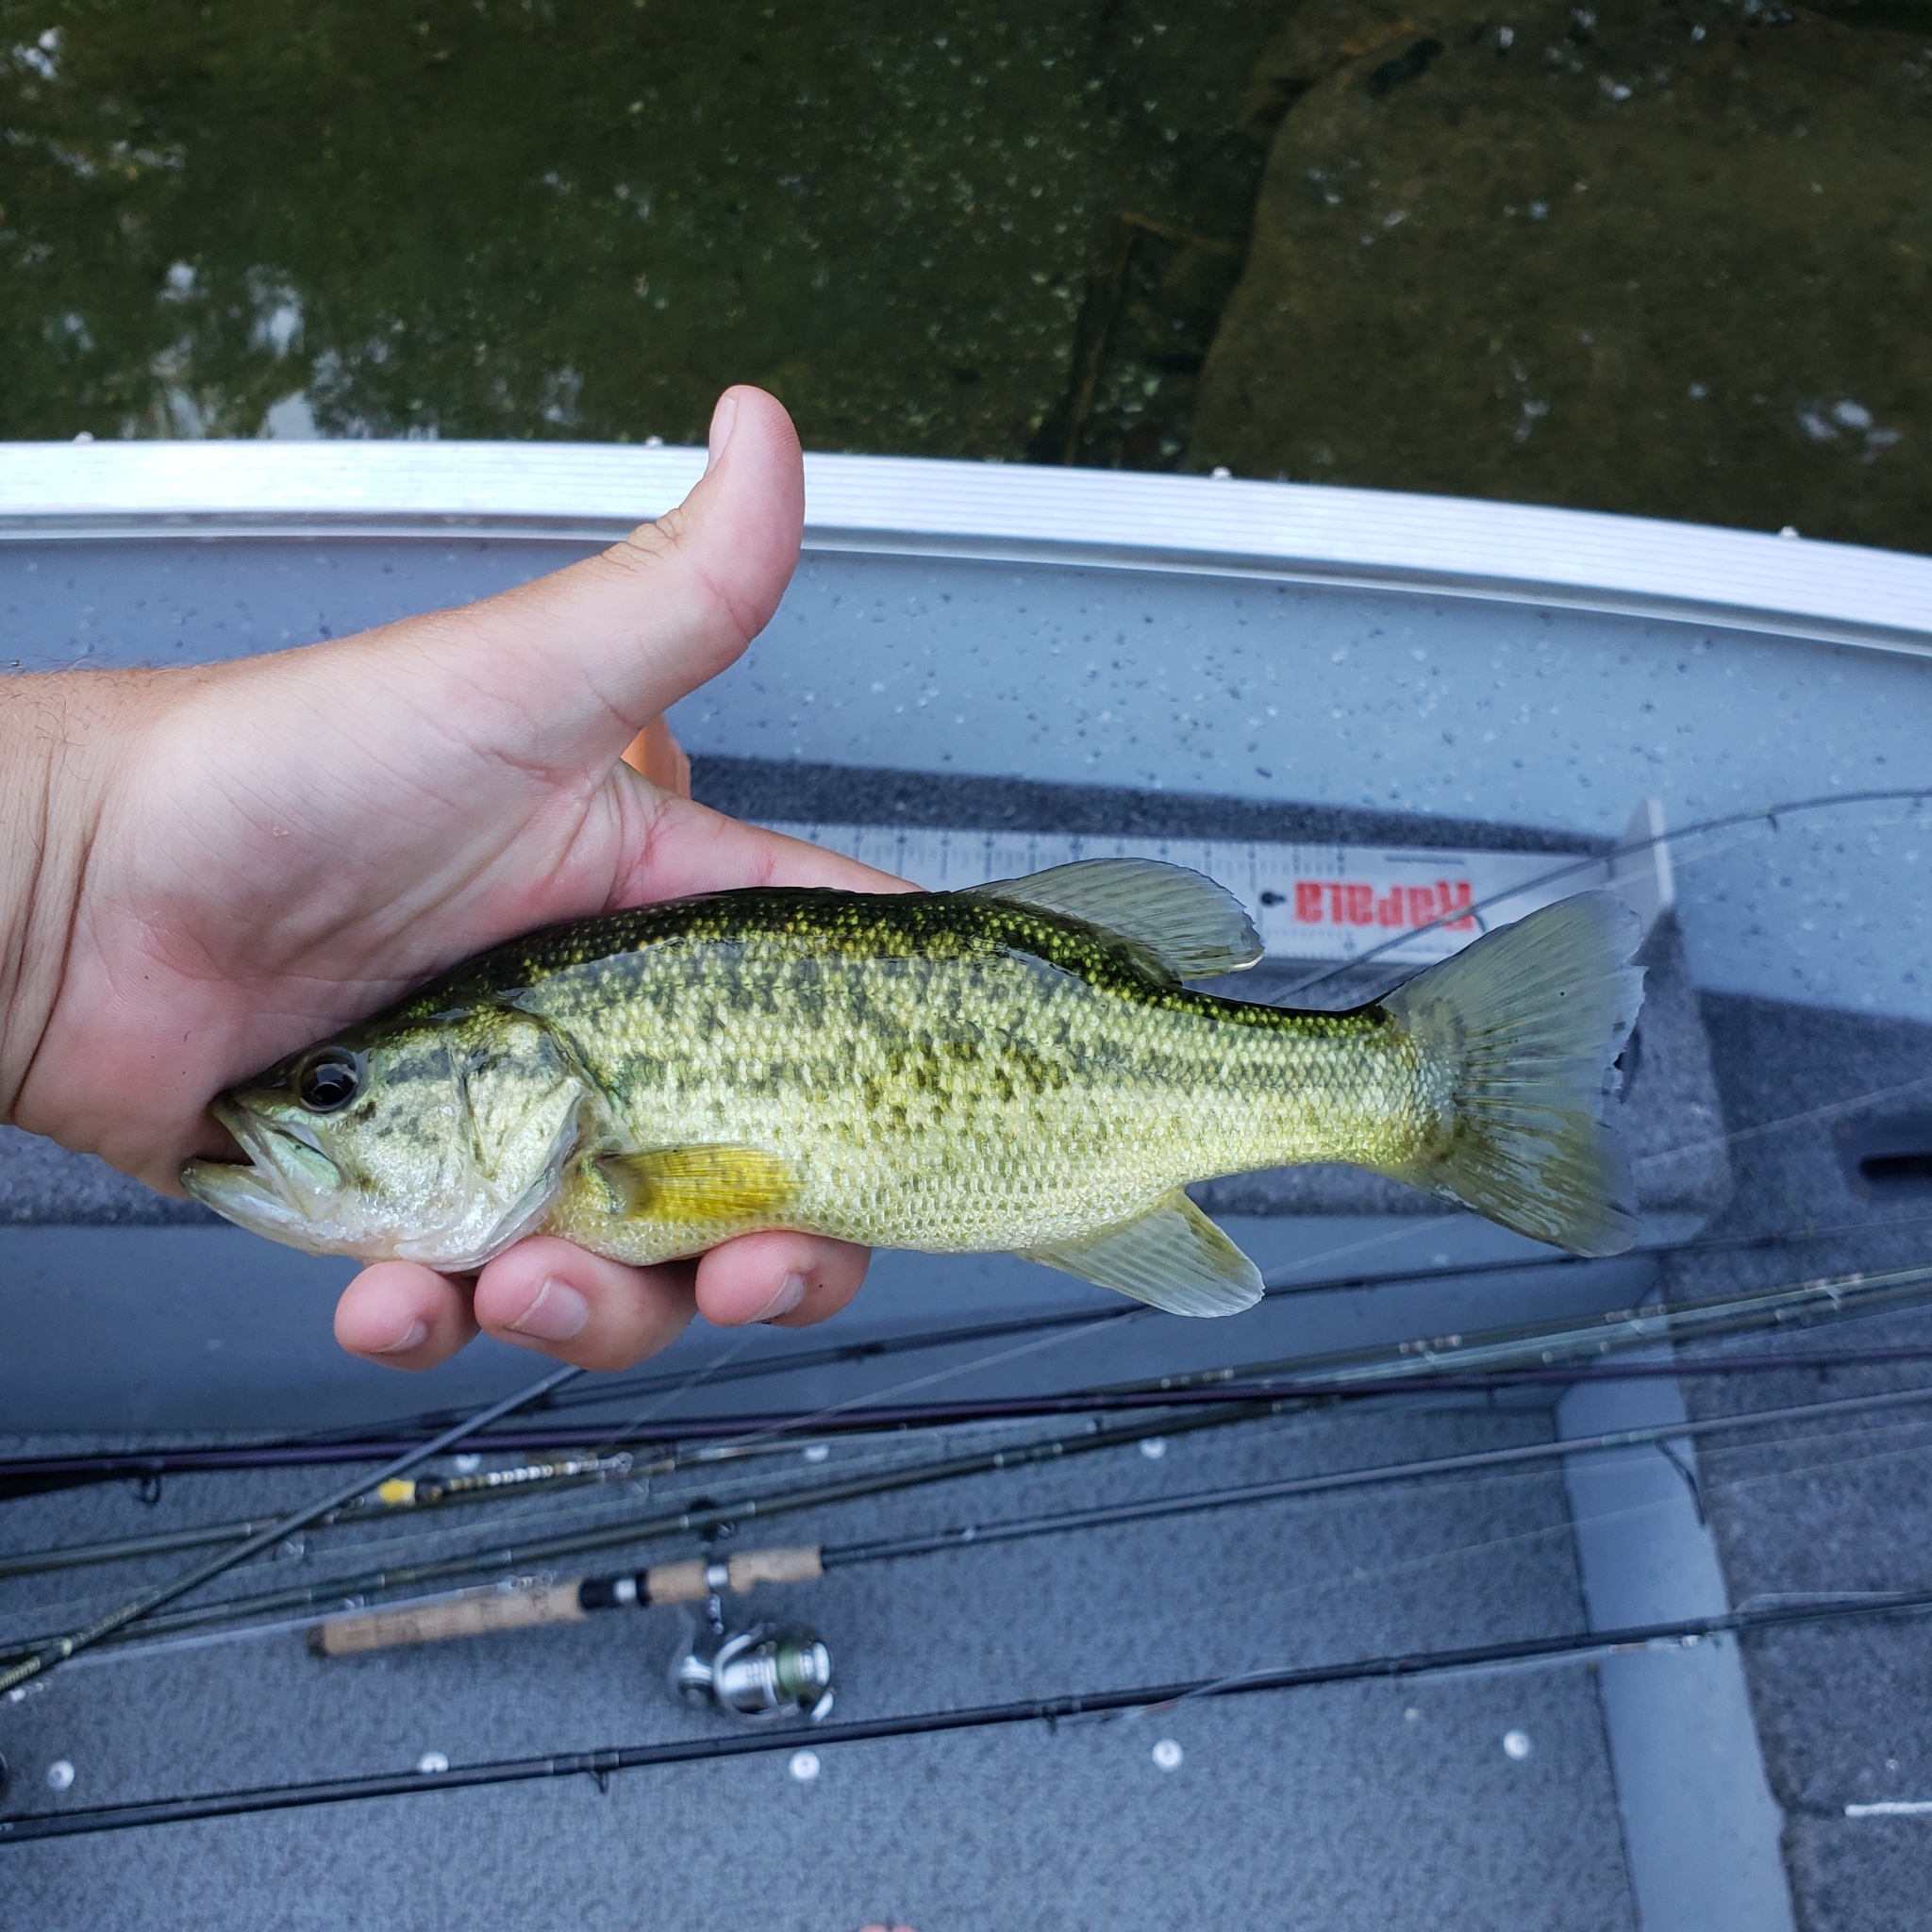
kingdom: Animalia
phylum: Chordata
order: Perciformes
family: Centrarchidae
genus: Micropterus
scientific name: Micropterus
